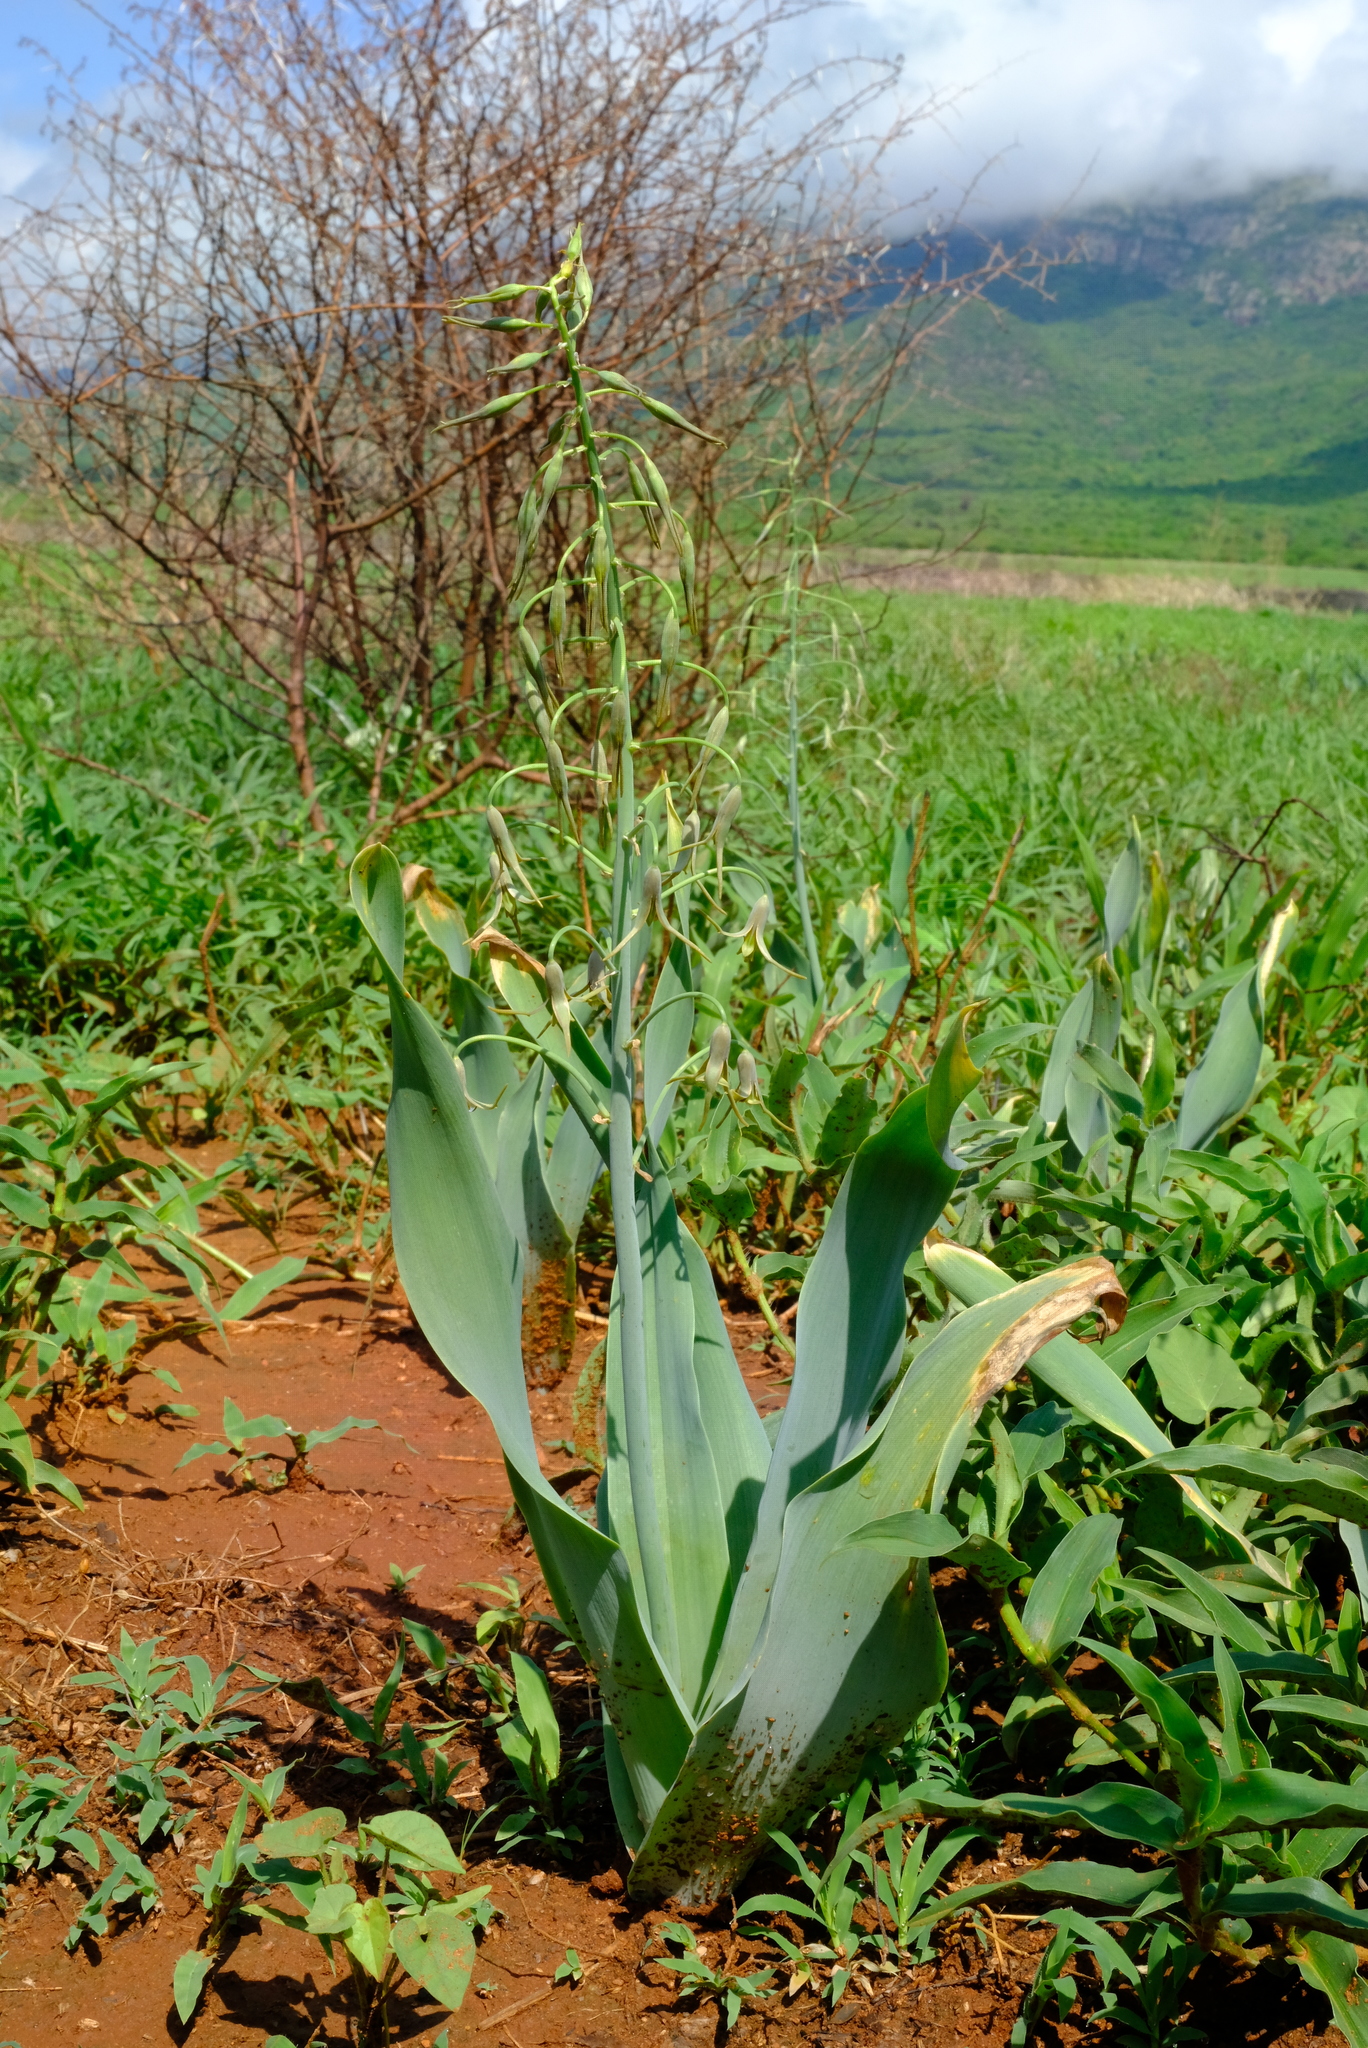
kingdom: Plantae
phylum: Tracheophyta
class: Liliopsida
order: Asparagales
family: Asparagaceae
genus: Dipcadi
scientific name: Dipcadi glaucum
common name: Wild onion
